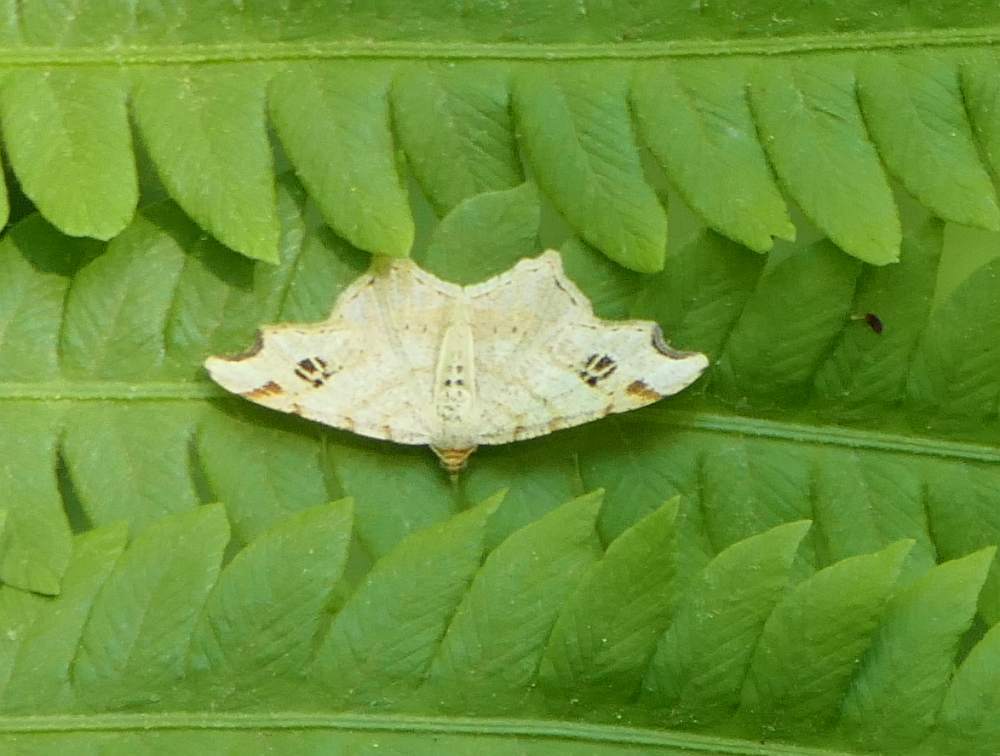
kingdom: Animalia
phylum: Arthropoda
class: Insecta
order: Lepidoptera
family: Geometridae
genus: Macaria
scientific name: Macaria aemulataria
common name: Common angle
